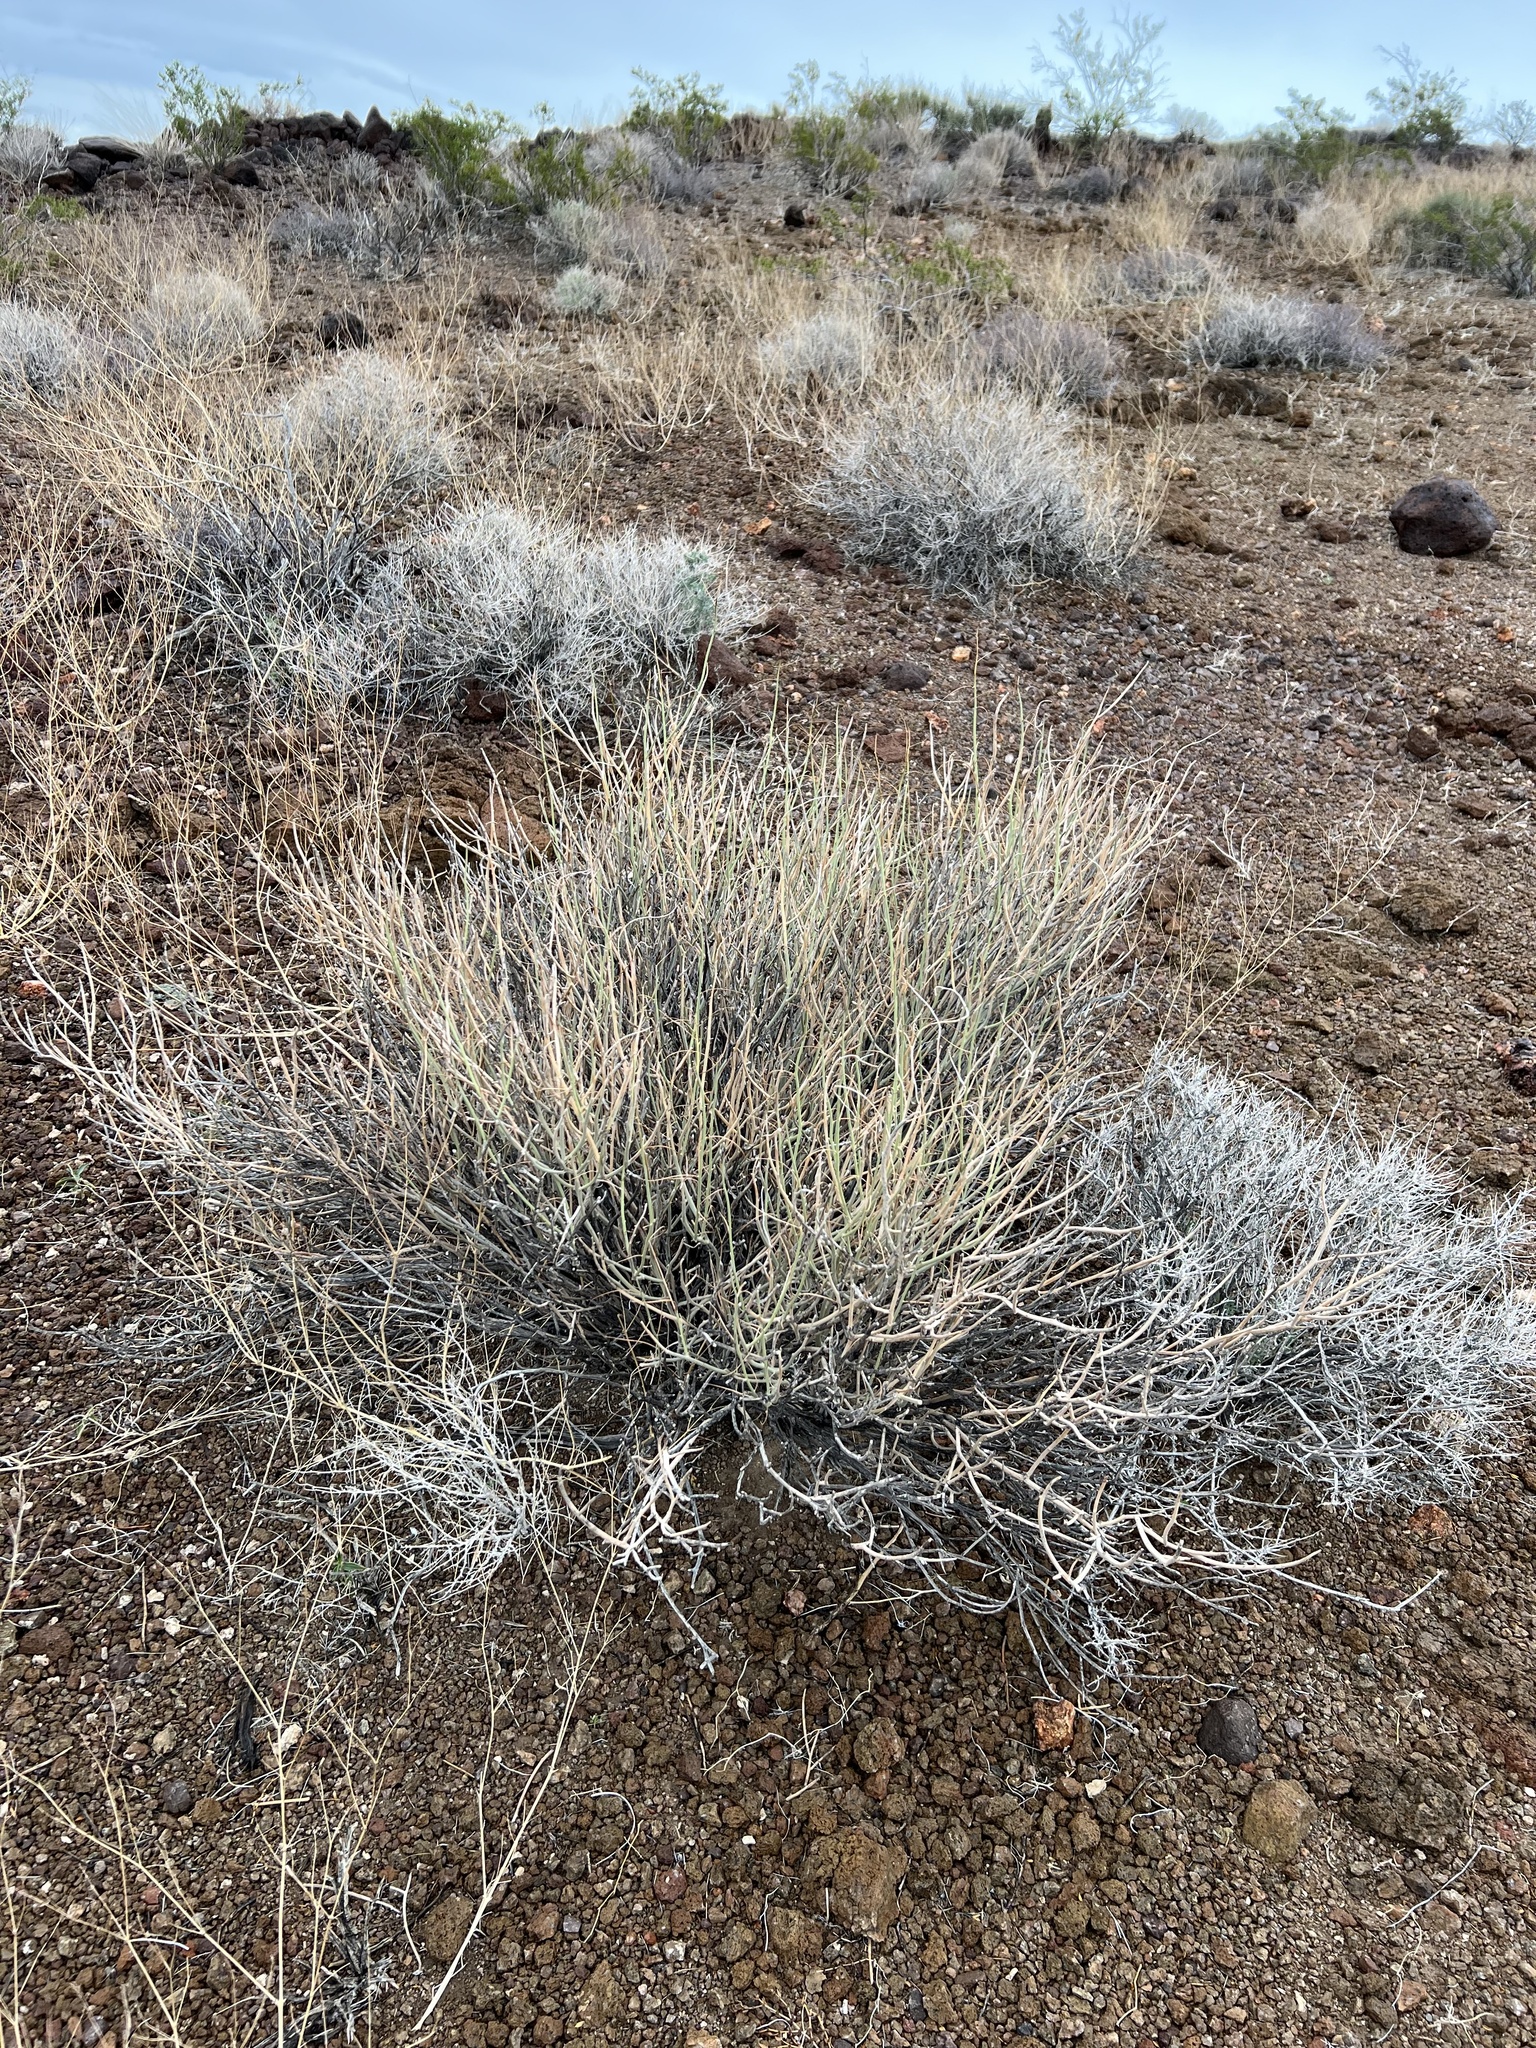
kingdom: Plantae
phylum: Tracheophyta
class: Magnoliopsida
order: Fabales
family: Fabaceae
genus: Senna
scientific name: Senna armata
